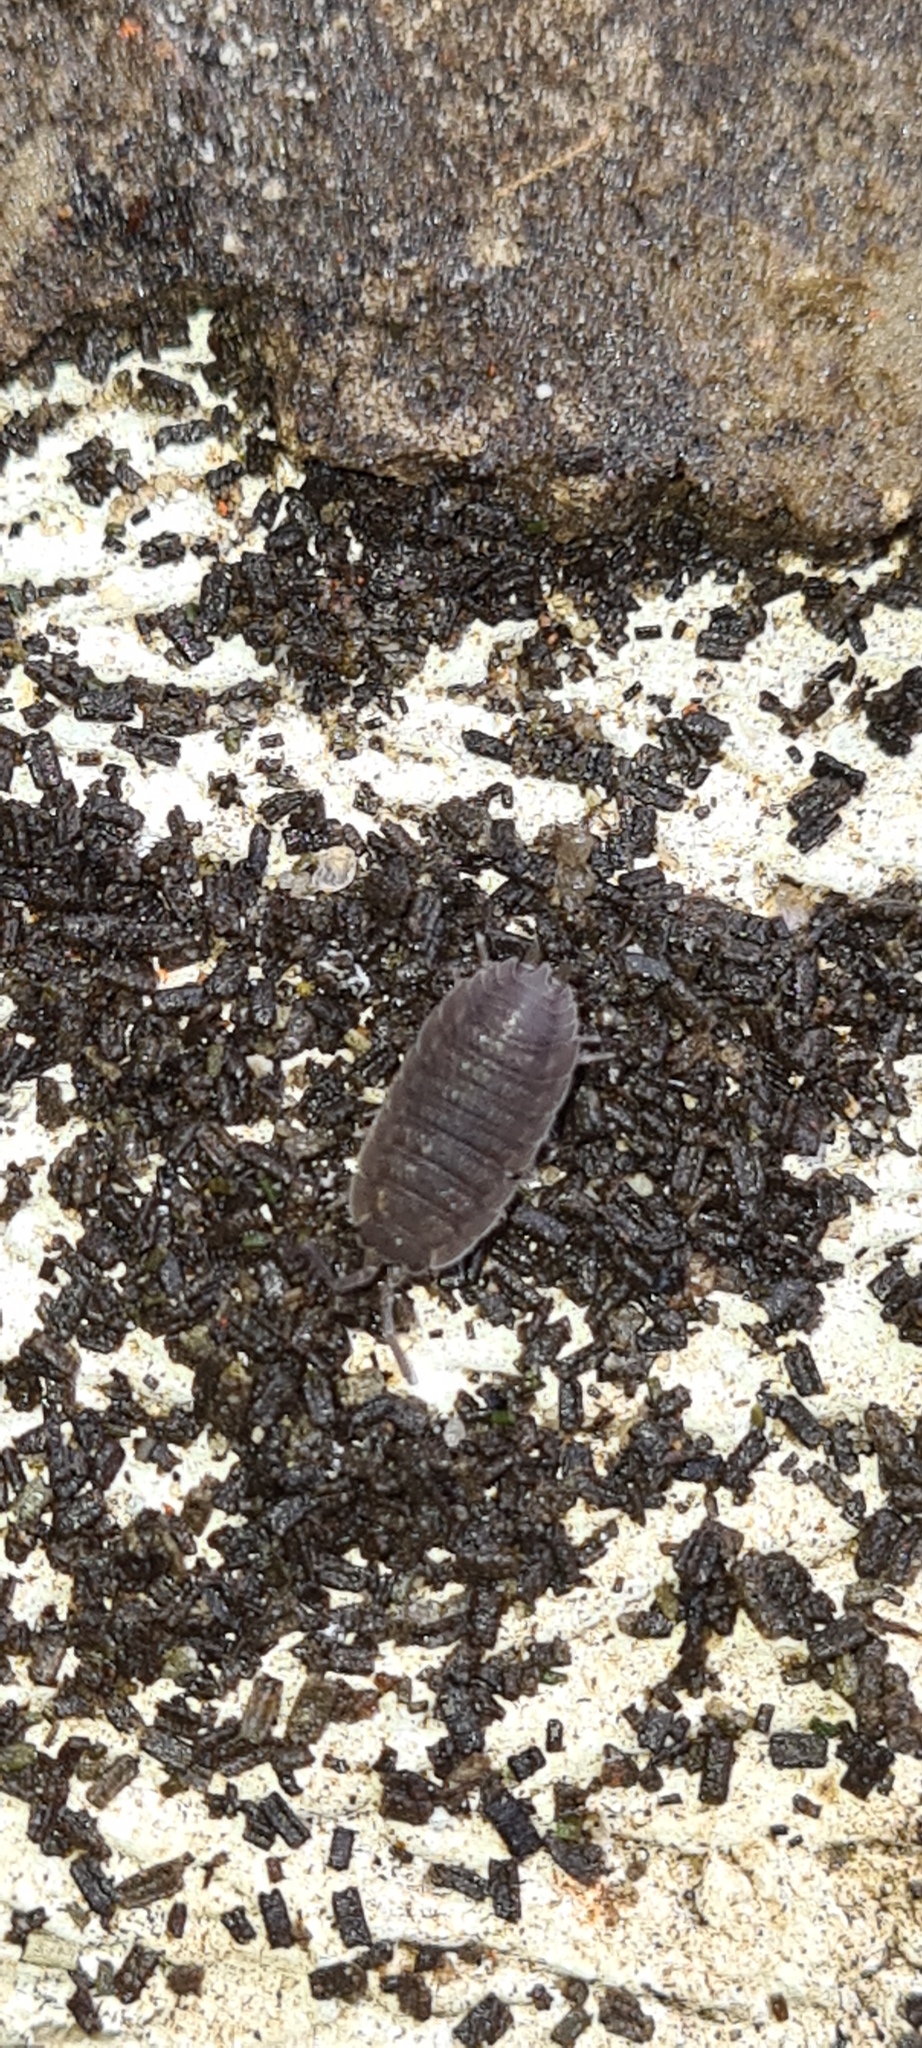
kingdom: Animalia
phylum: Arthropoda
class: Malacostraca
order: Isopoda
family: Porcellionidae
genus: Porcellio
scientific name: Porcellio scaber
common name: Common rough woodlouse
